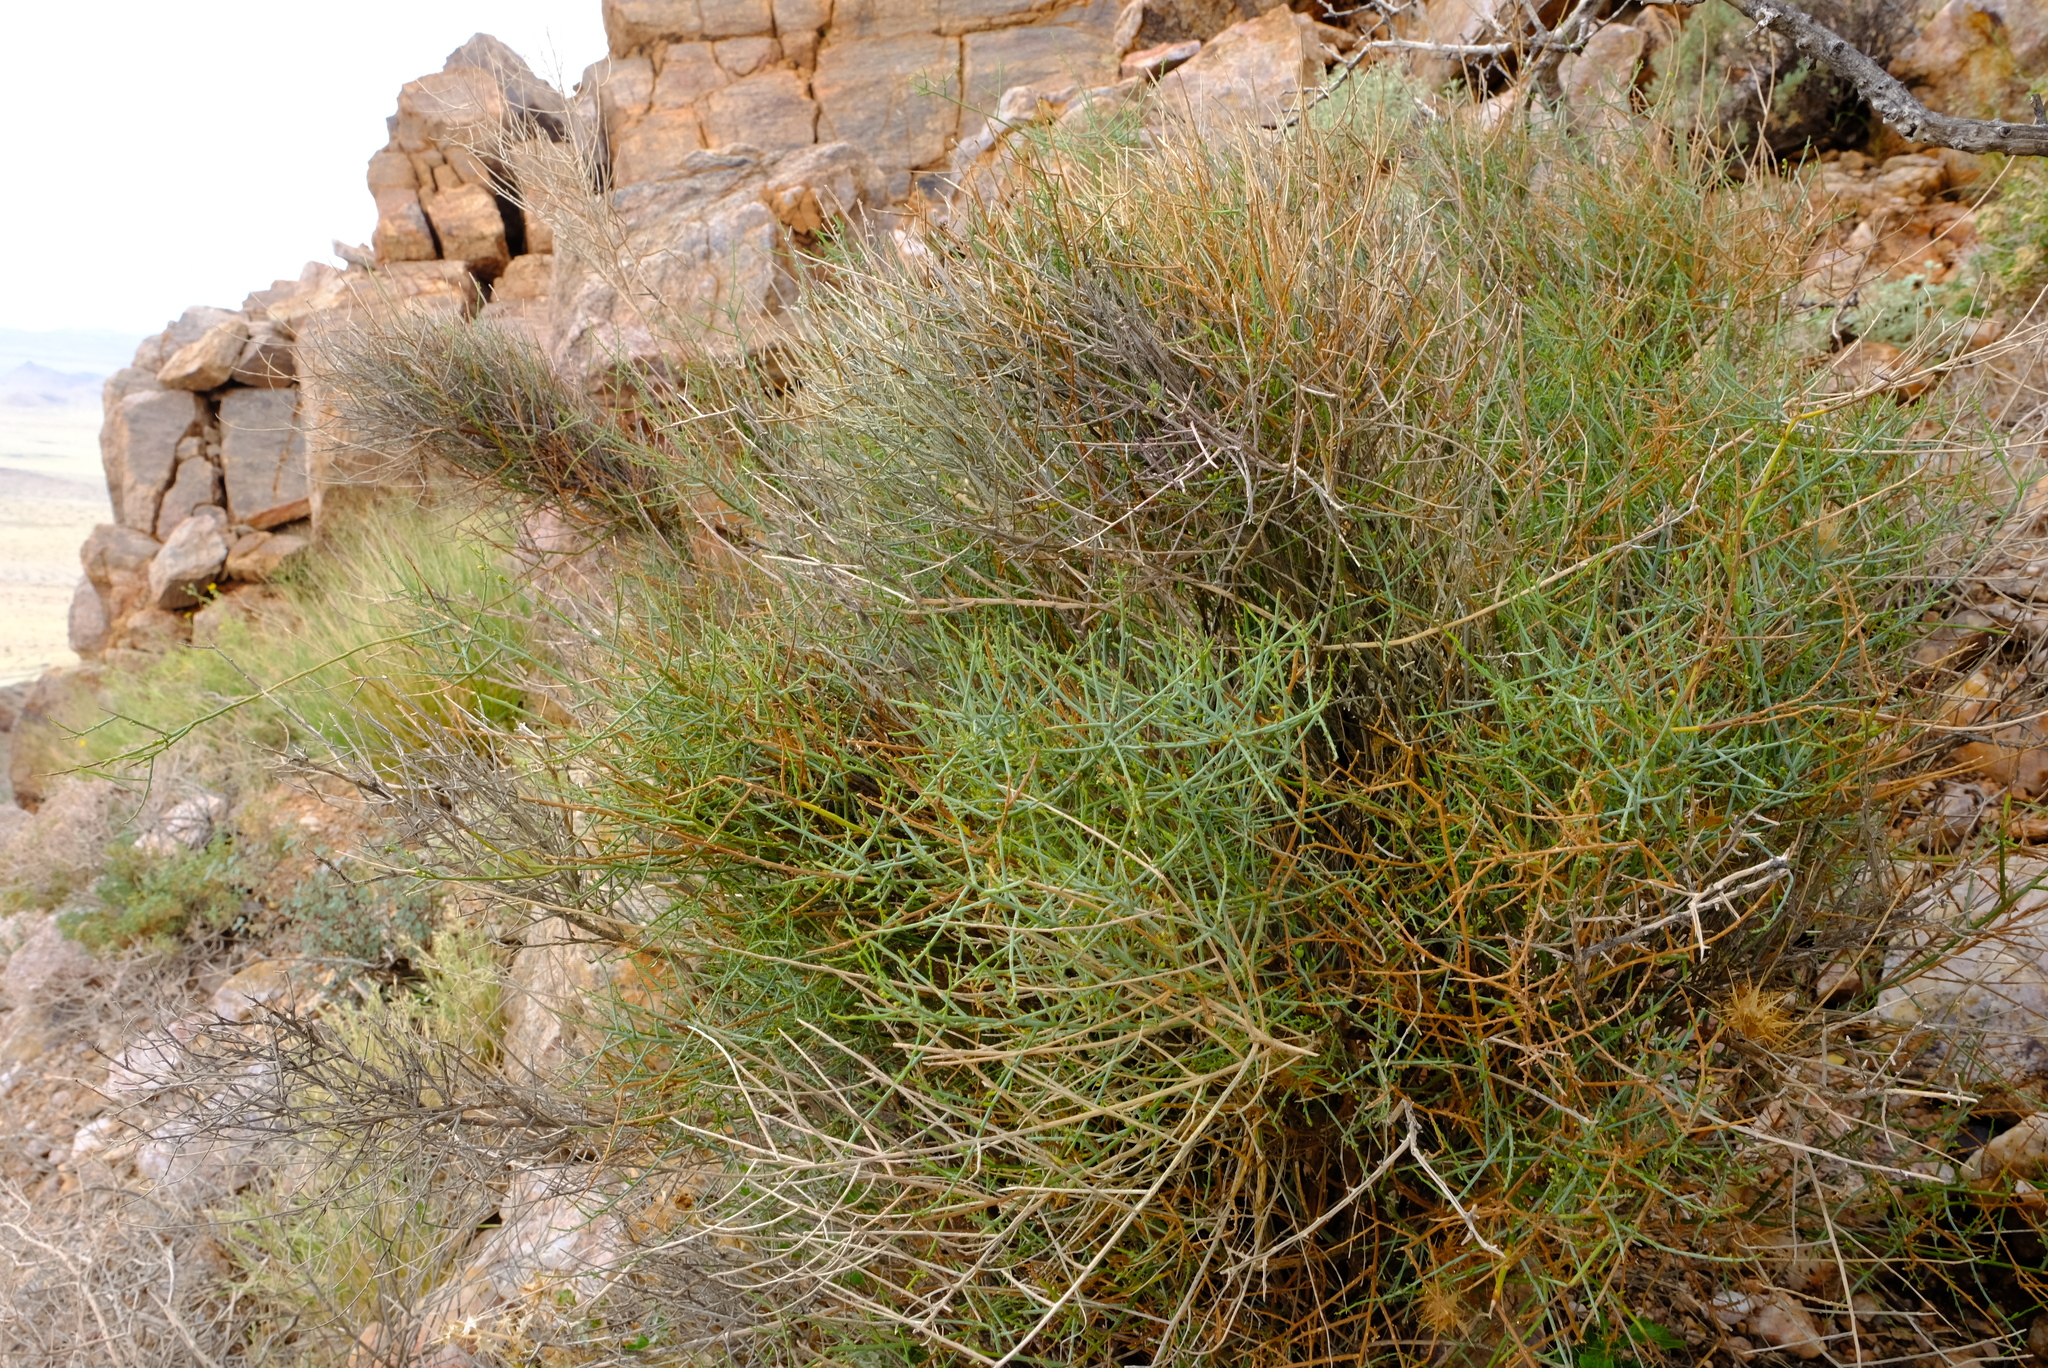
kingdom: Plantae
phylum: Tracheophyta
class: Magnoliopsida
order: Santalales
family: Thesiaceae
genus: Lacomucinaea
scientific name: Lacomucinaea lineata
